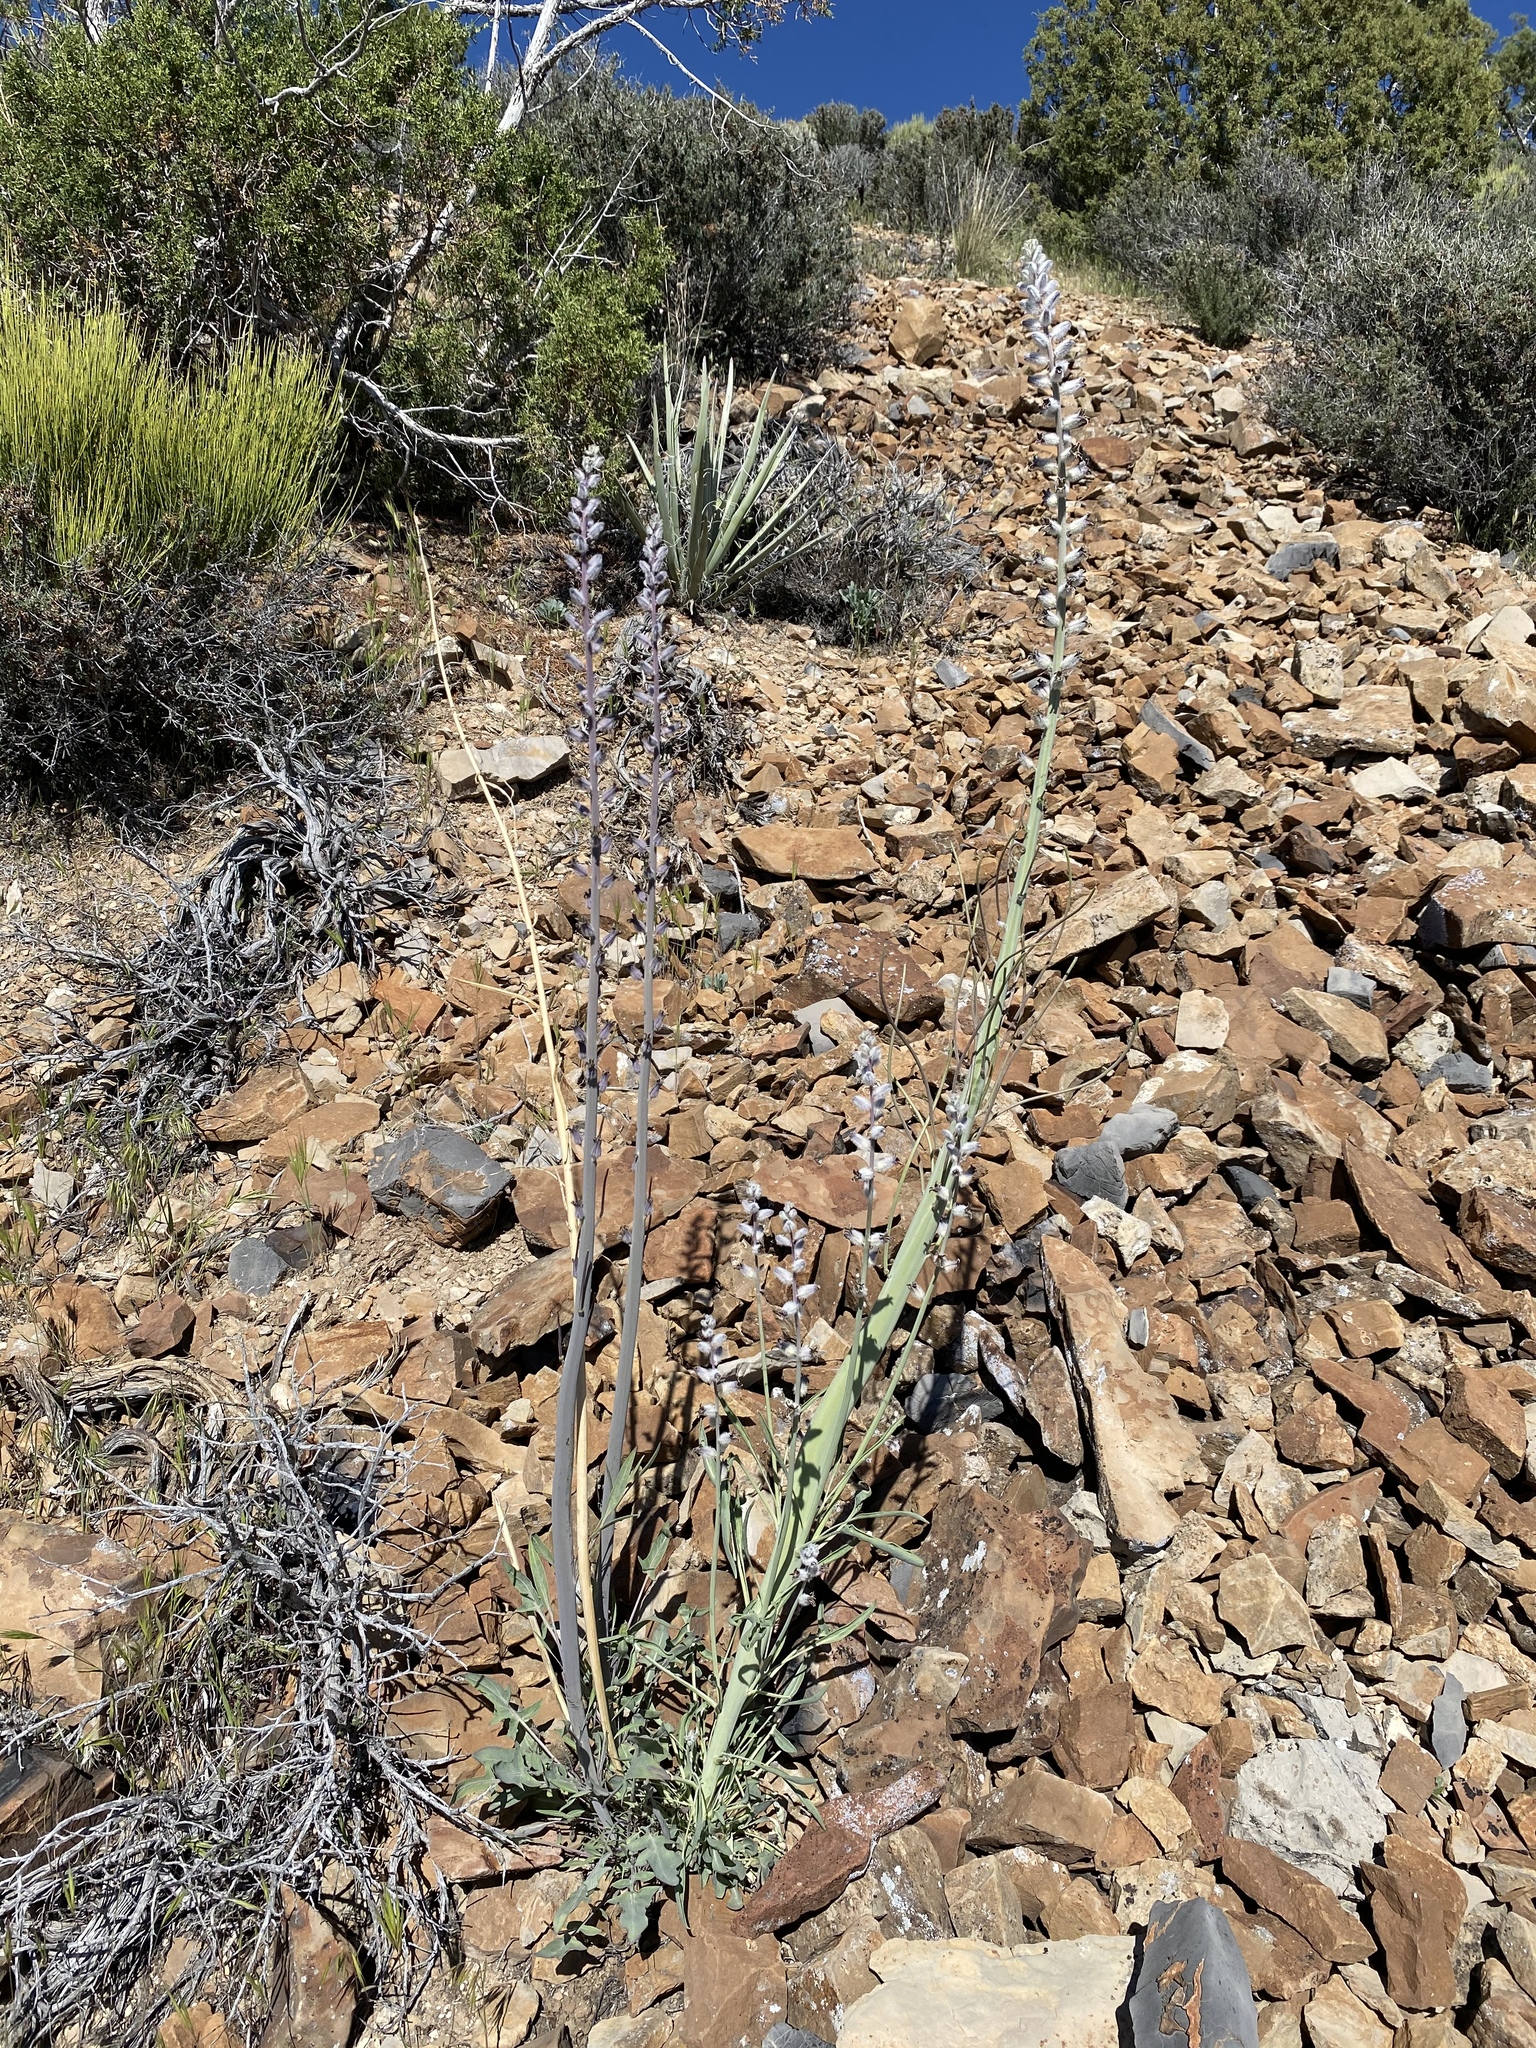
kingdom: Plantae
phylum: Tracheophyta
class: Magnoliopsida
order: Brassicales
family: Brassicaceae
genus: Streptanthus
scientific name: Streptanthus crassicaulis
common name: Thick-stem wild cabbage
